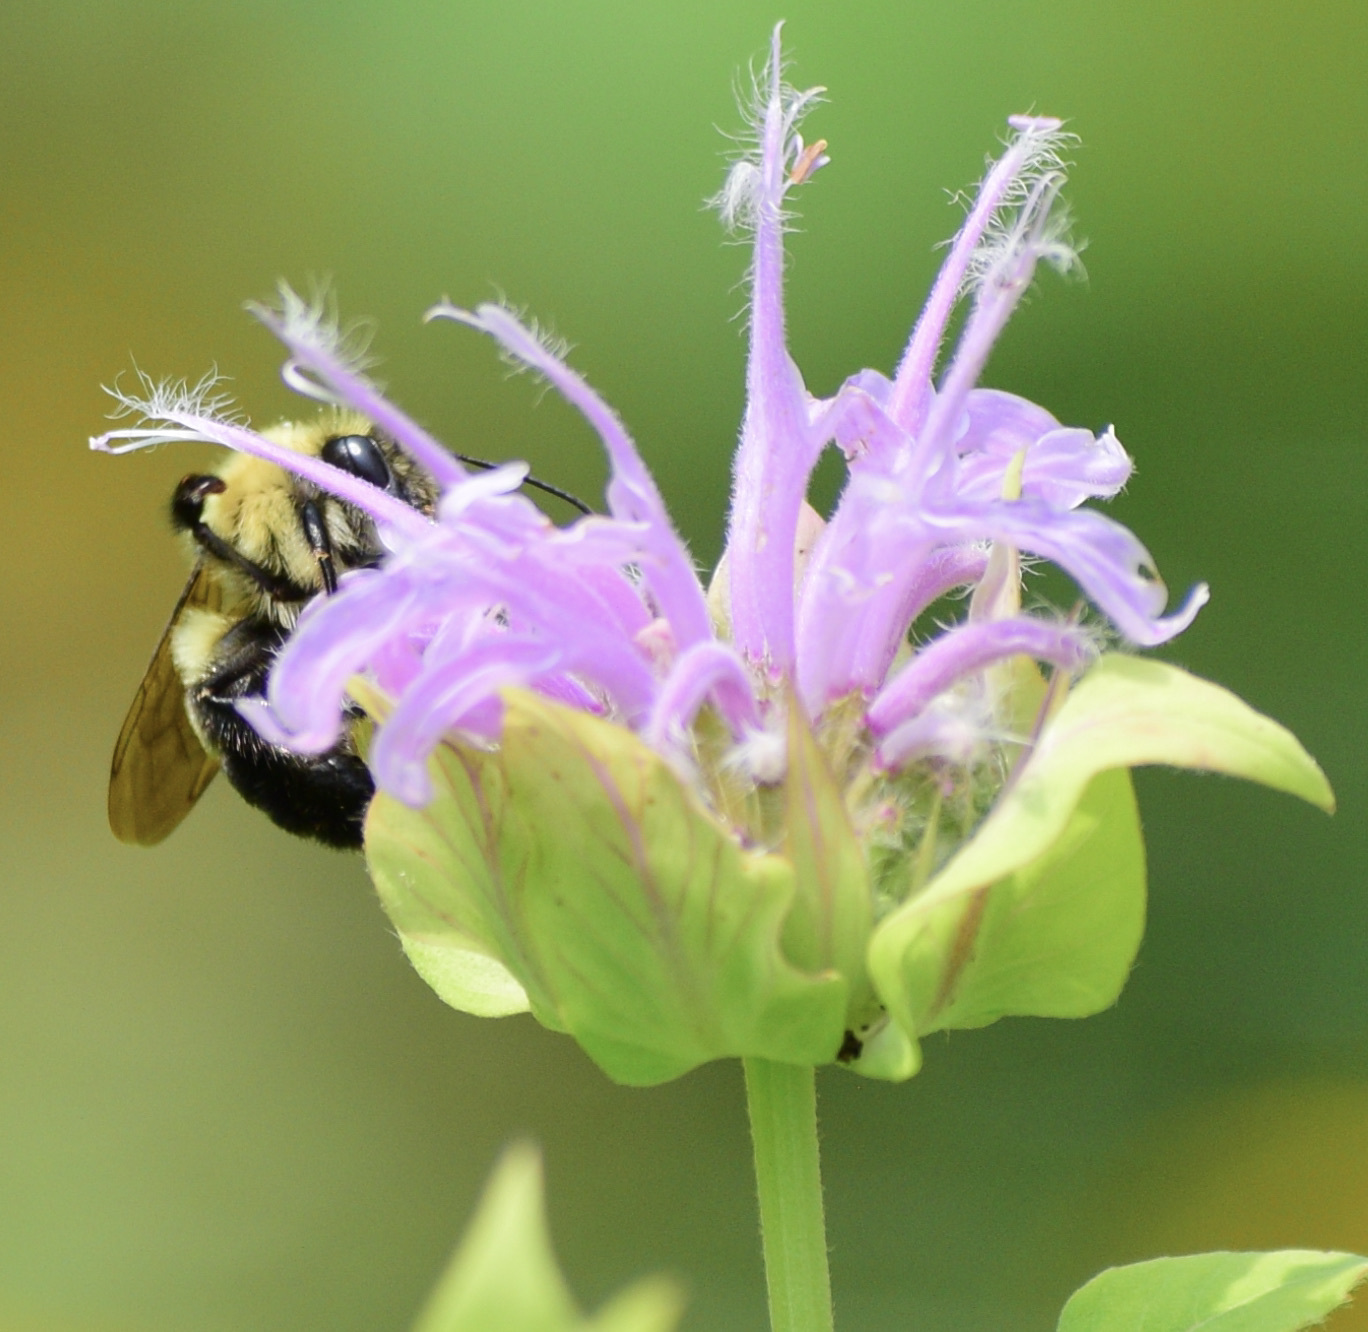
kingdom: Animalia
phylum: Arthropoda
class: Insecta
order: Hymenoptera
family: Apidae
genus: Bombus
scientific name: Bombus bimaculatus
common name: Two-spotted bumble bee
